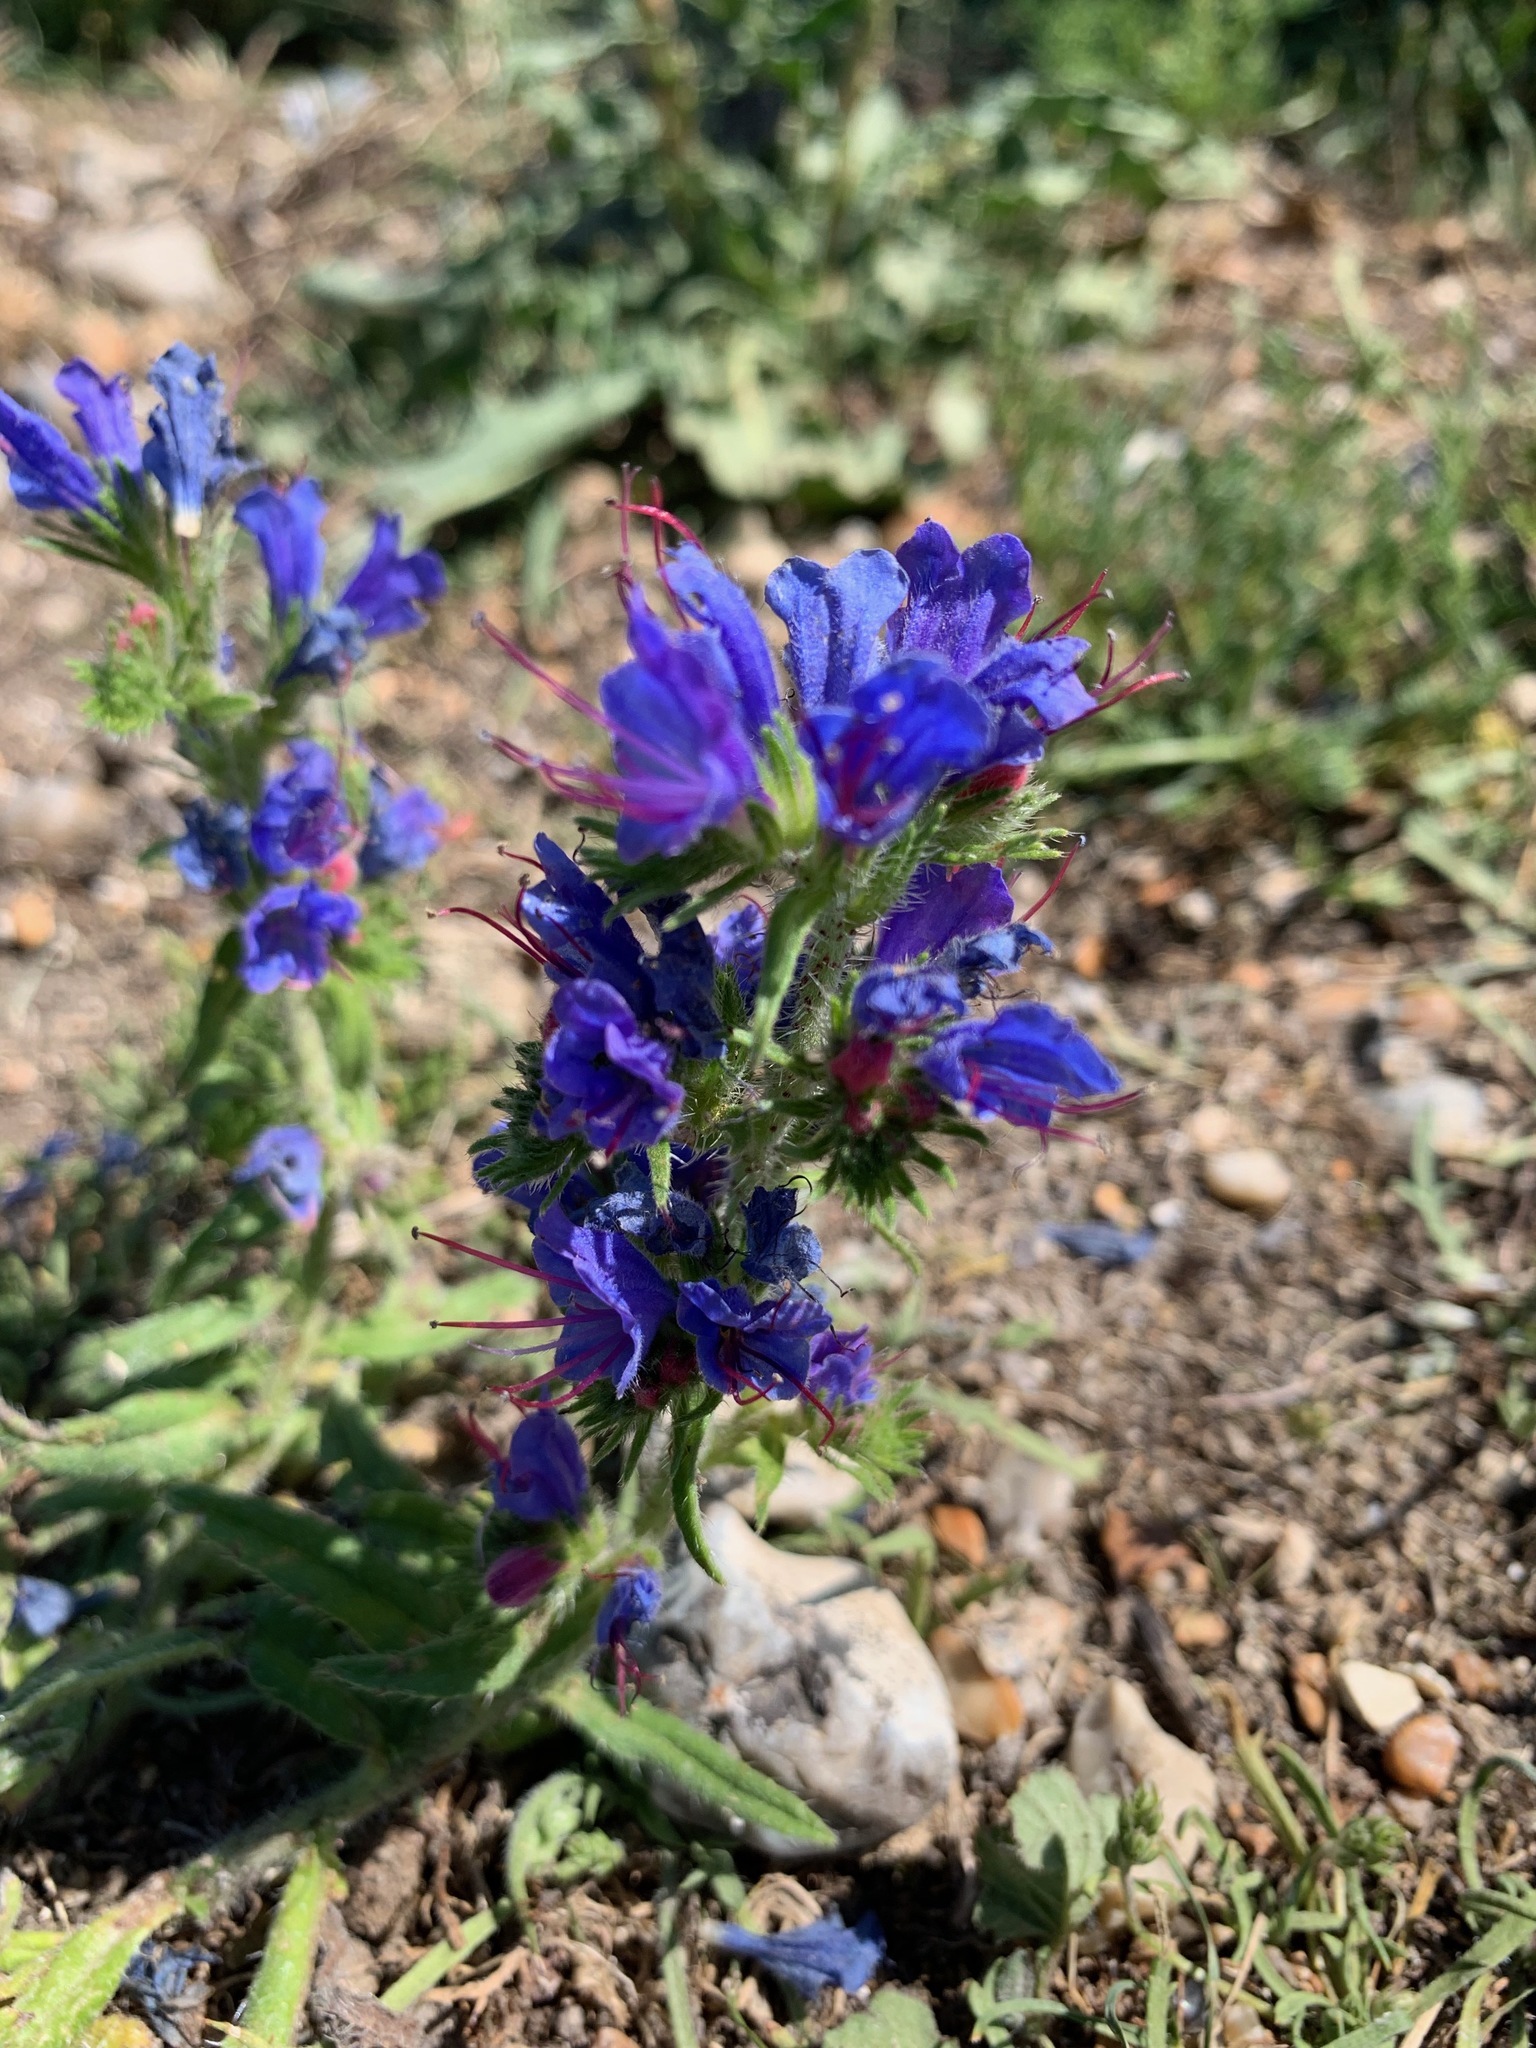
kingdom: Plantae
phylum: Tracheophyta
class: Magnoliopsida
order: Boraginales
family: Boraginaceae
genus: Echium
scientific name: Echium vulgare
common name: Common viper's bugloss
